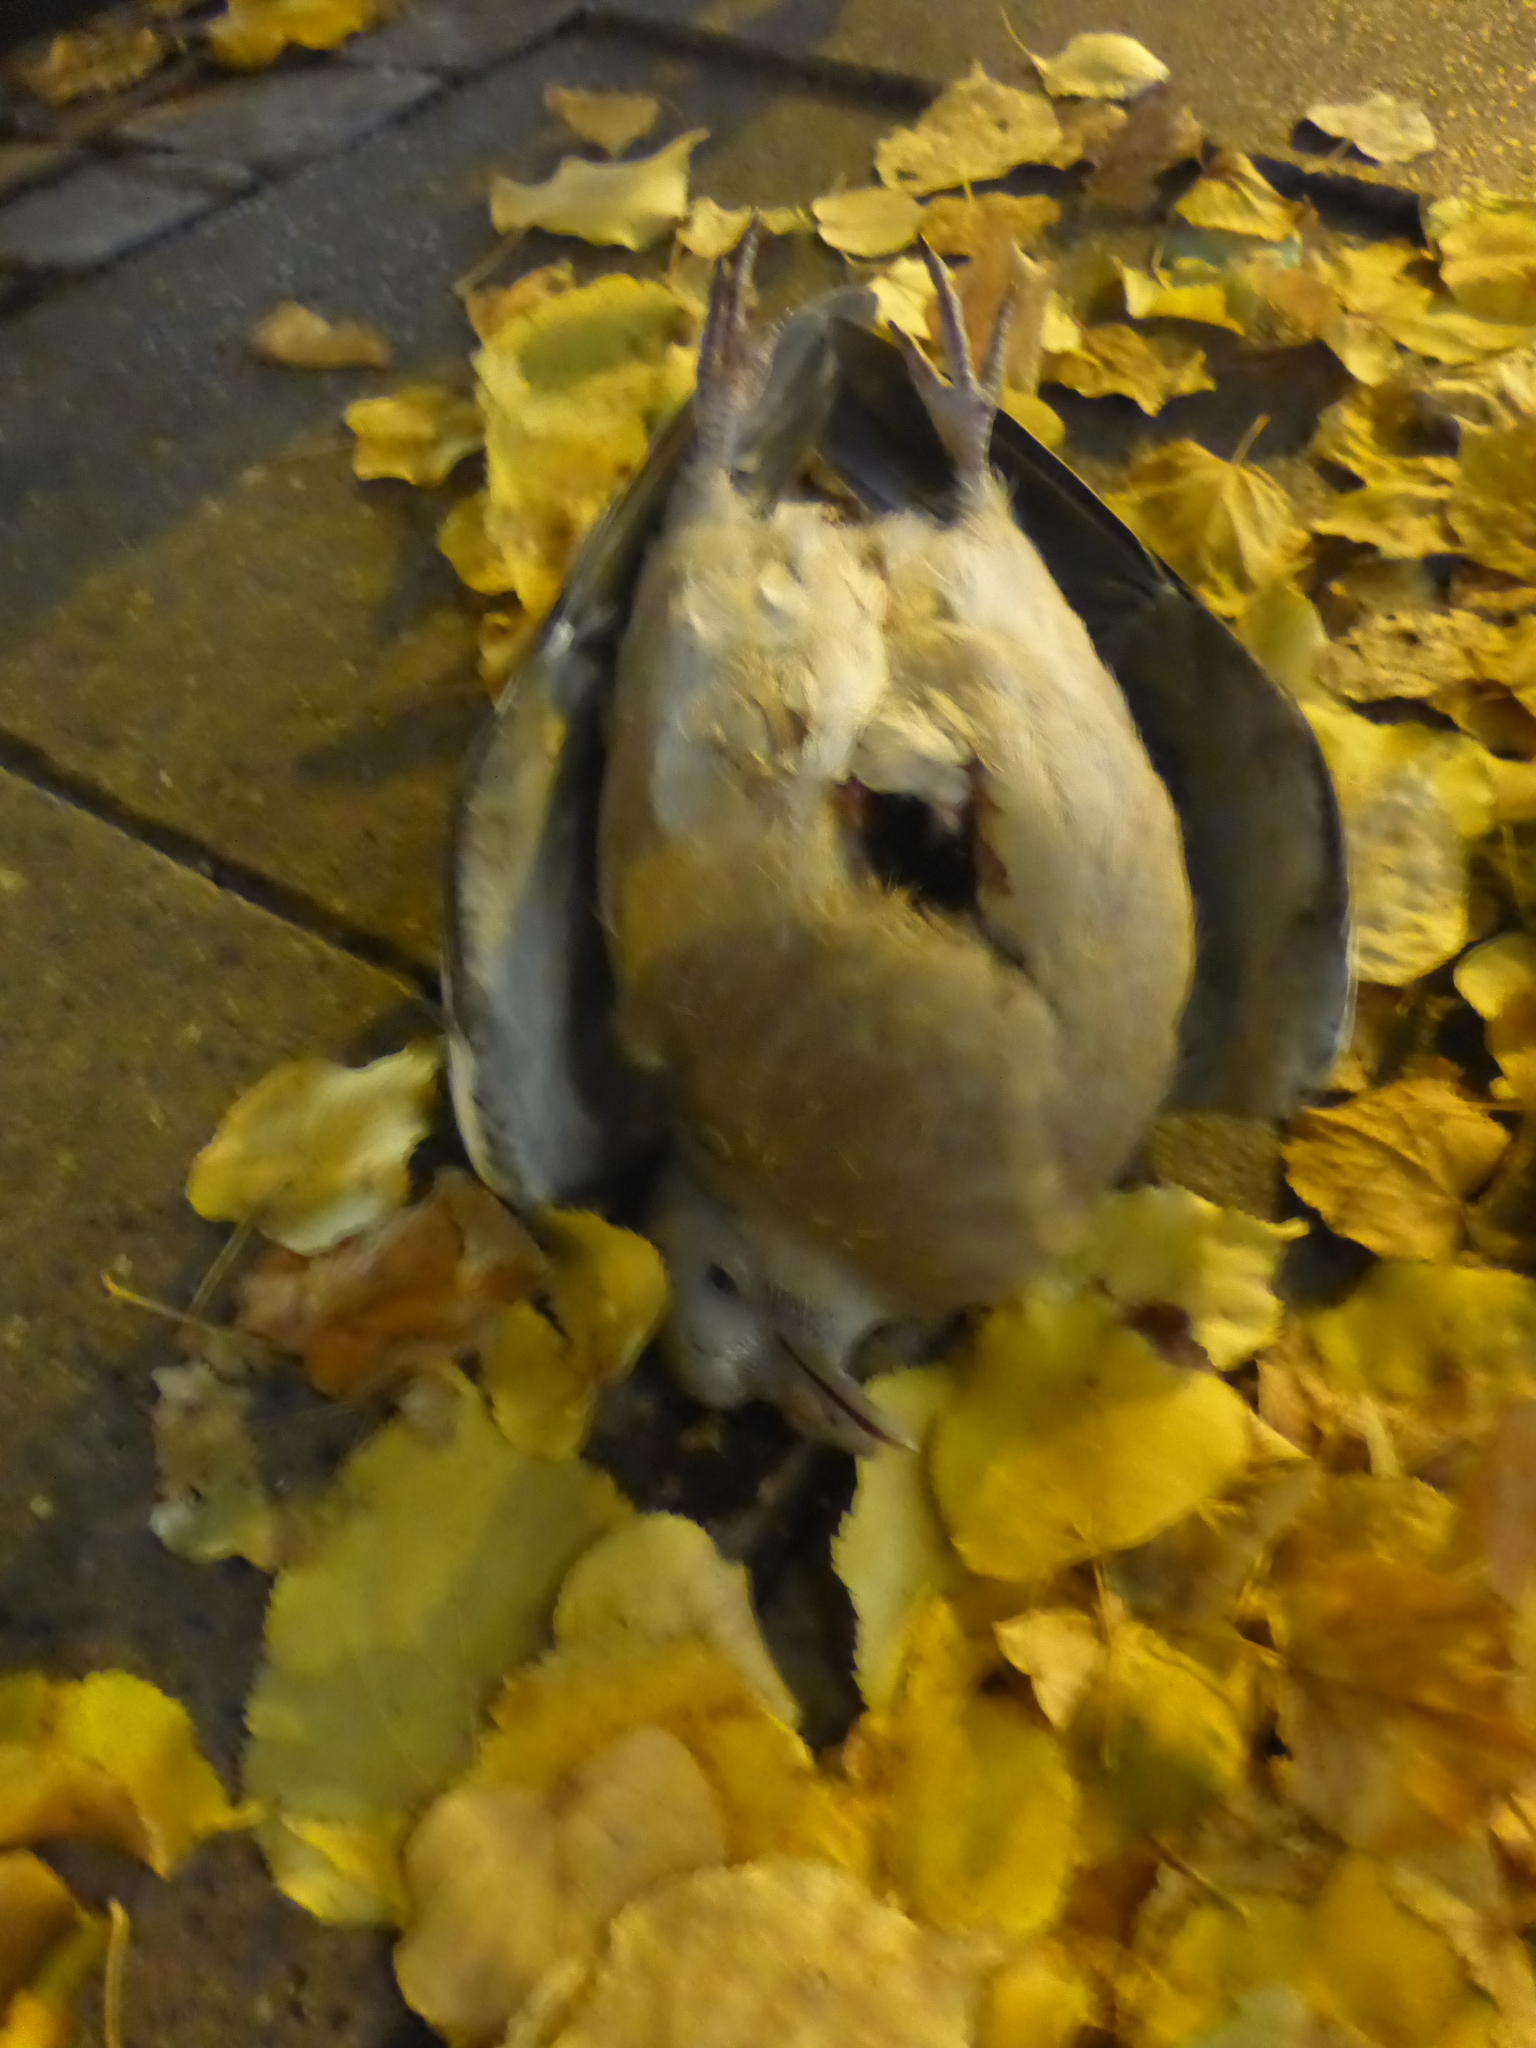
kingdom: Animalia
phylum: Chordata
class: Aves
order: Columbiformes
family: Columbidae
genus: Columba
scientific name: Columba palumbus
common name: Common wood pigeon
